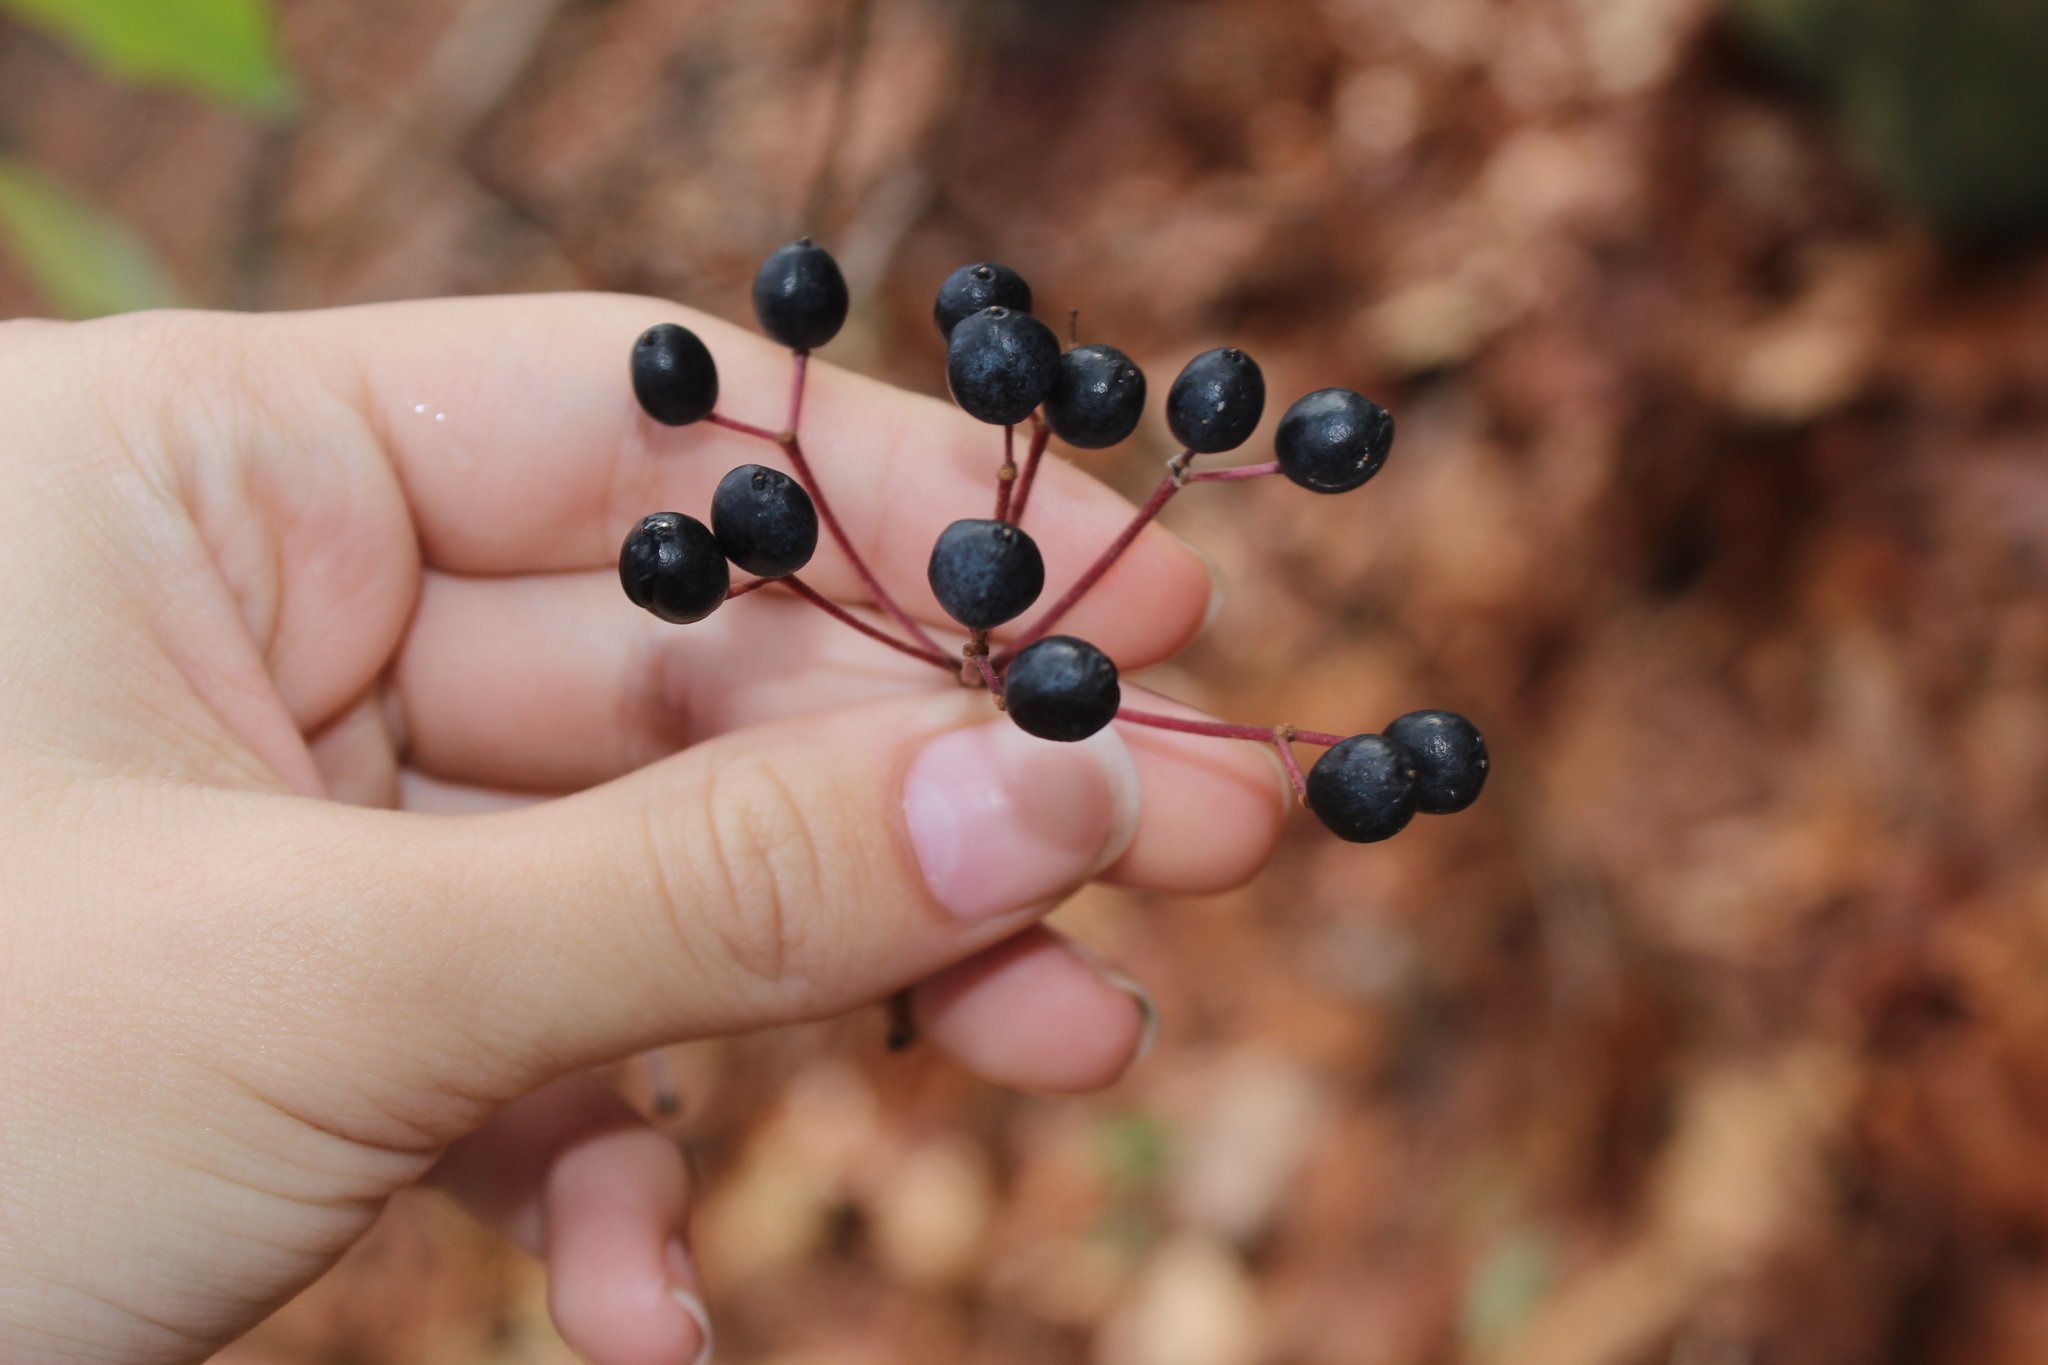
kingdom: Plantae
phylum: Tracheophyta
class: Magnoliopsida
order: Dipsacales
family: Viburnaceae
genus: Viburnum
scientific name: Viburnum acerifolium
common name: Dockmackie
